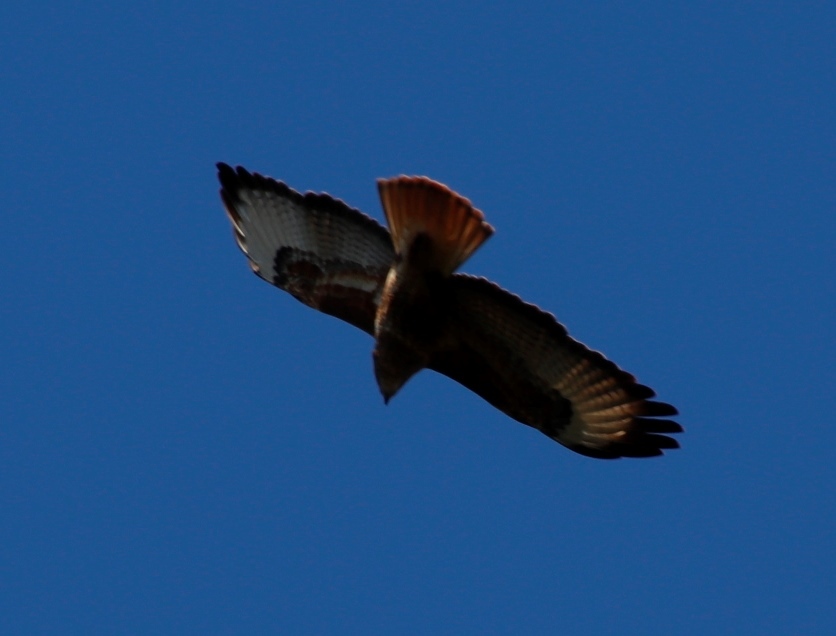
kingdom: Animalia
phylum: Chordata
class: Aves
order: Accipitriformes
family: Accipitridae
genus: Buteo
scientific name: Buteo rufofuscus
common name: Jackal buzzard
